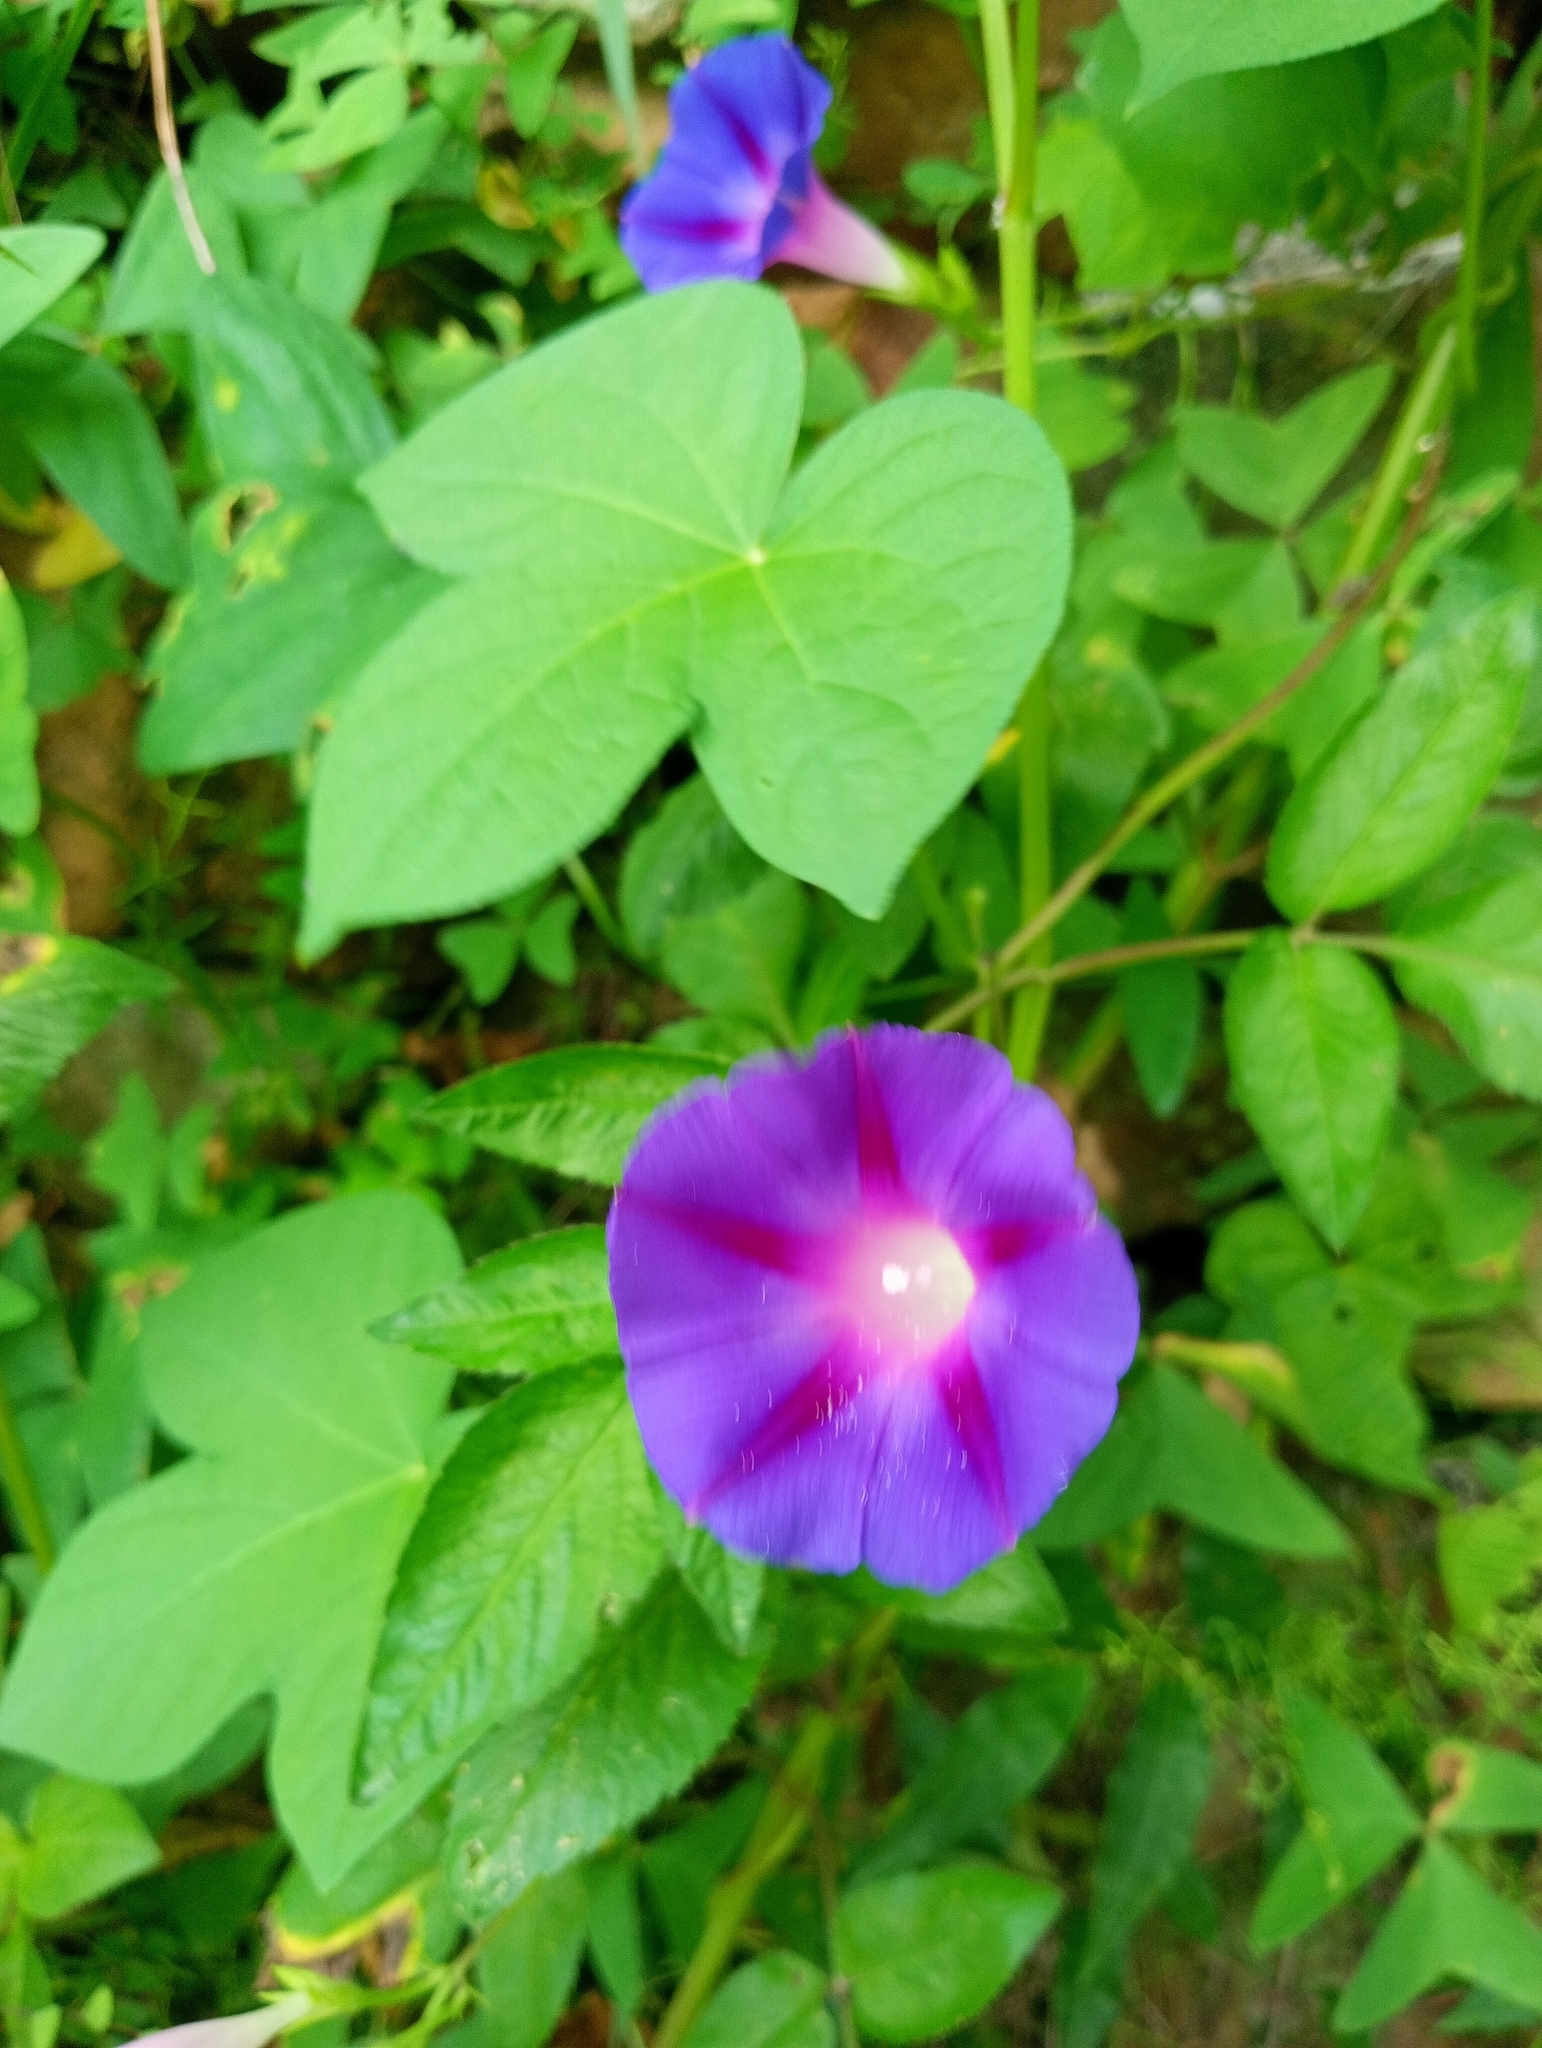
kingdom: Plantae
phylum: Tracheophyta
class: Magnoliopsida
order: Solanales
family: Convolvulaceae
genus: Ipomoea
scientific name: Ipomoea purpurea
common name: Common morning-glory
